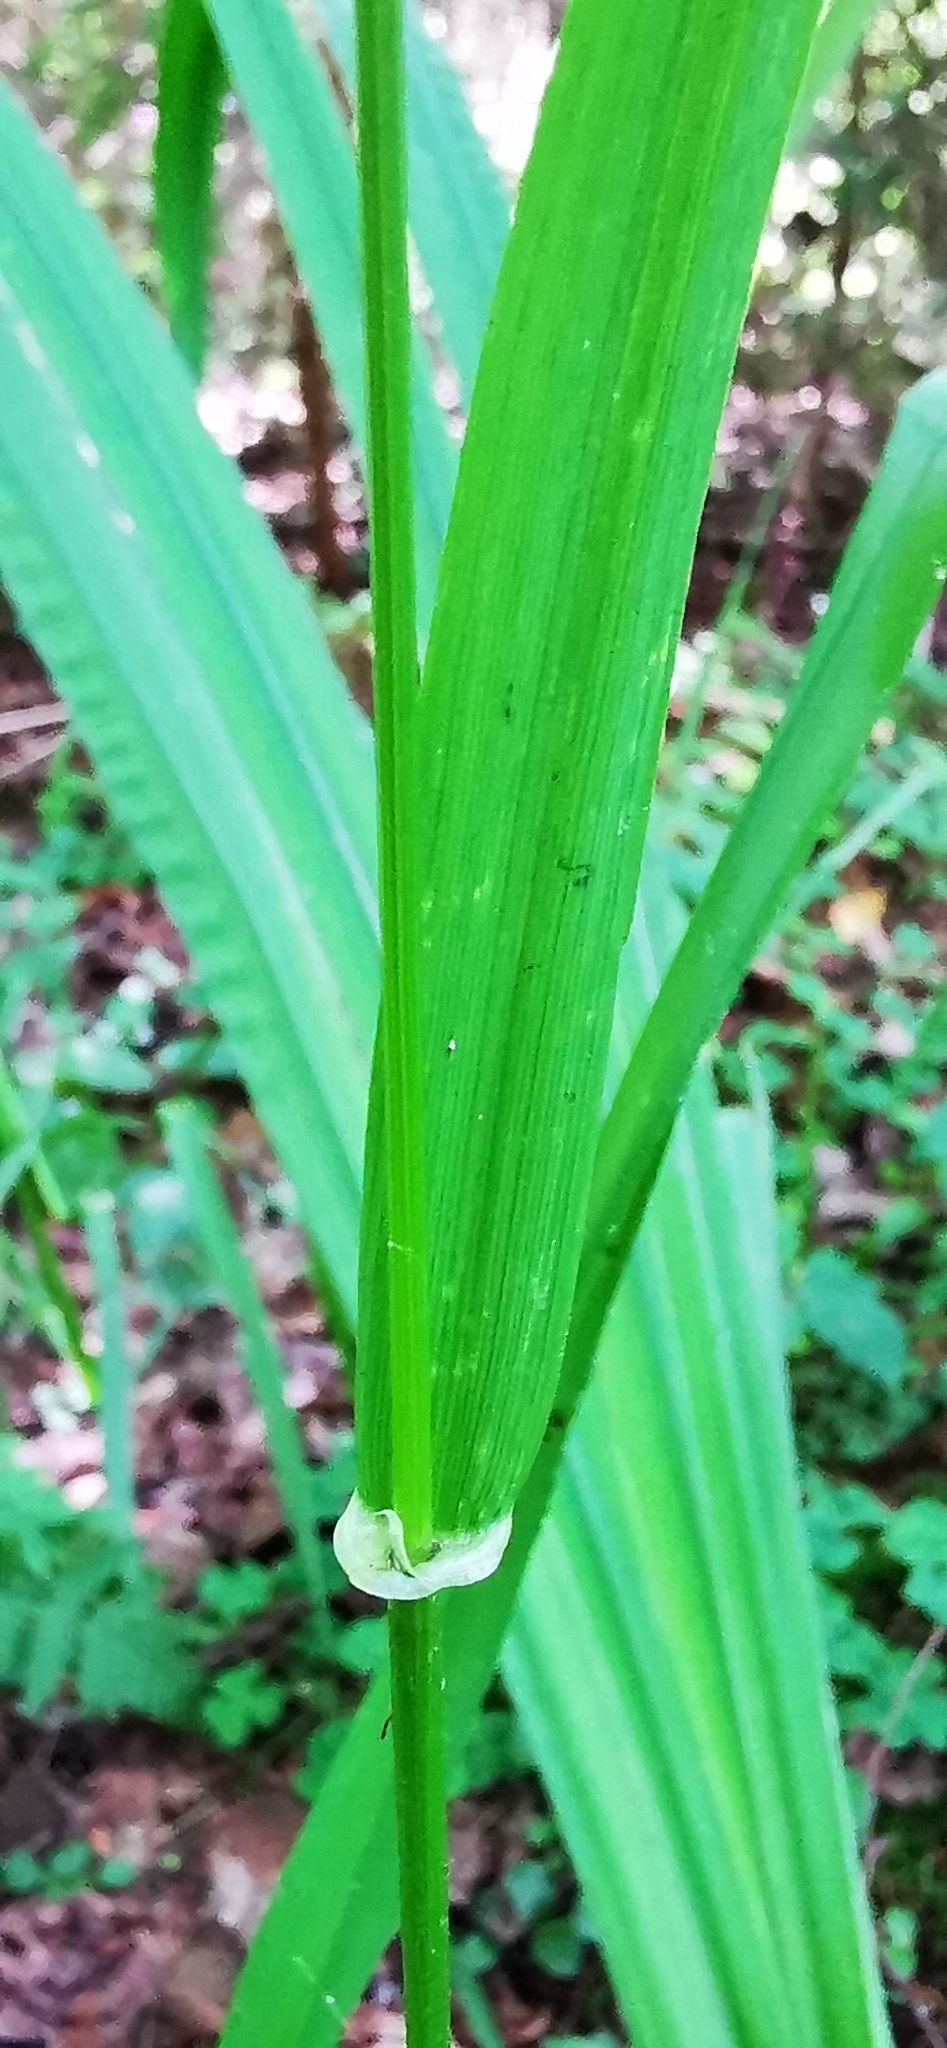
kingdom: Plantae
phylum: Tracheophyta
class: Liliopsida
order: Poales
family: Poaceae
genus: Lolium
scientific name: Lolium giganteum
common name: Giant fescue
